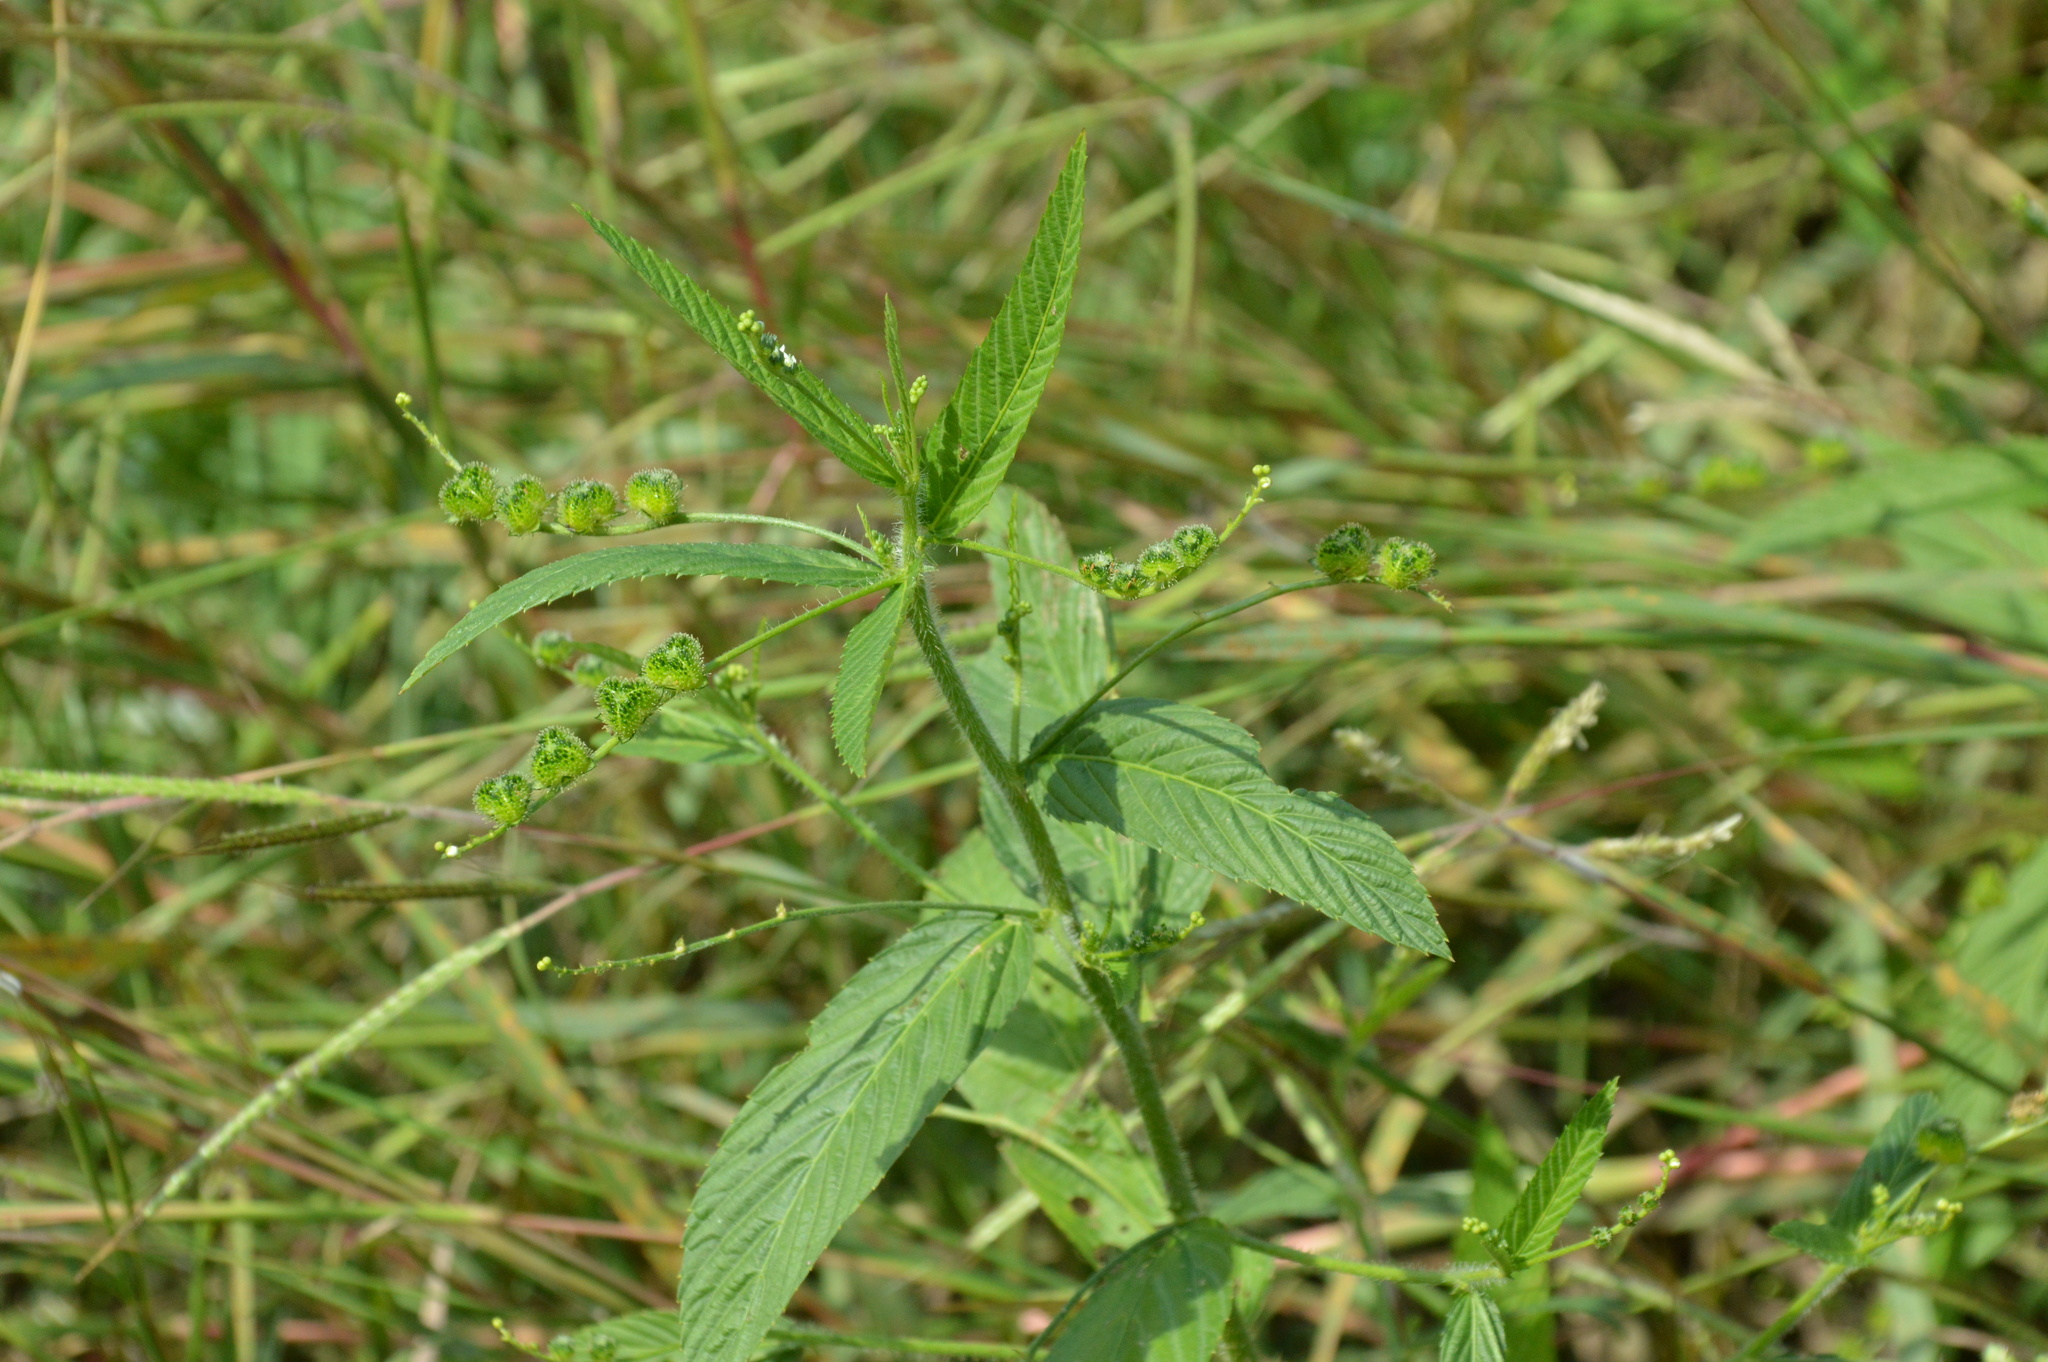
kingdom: Plantae
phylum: Tracheophyta
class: Magnoliopsida
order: Malpighiales
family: Euphorbiaceae
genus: Caperonia
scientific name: Caperonia palustris
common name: Sacatrapo
